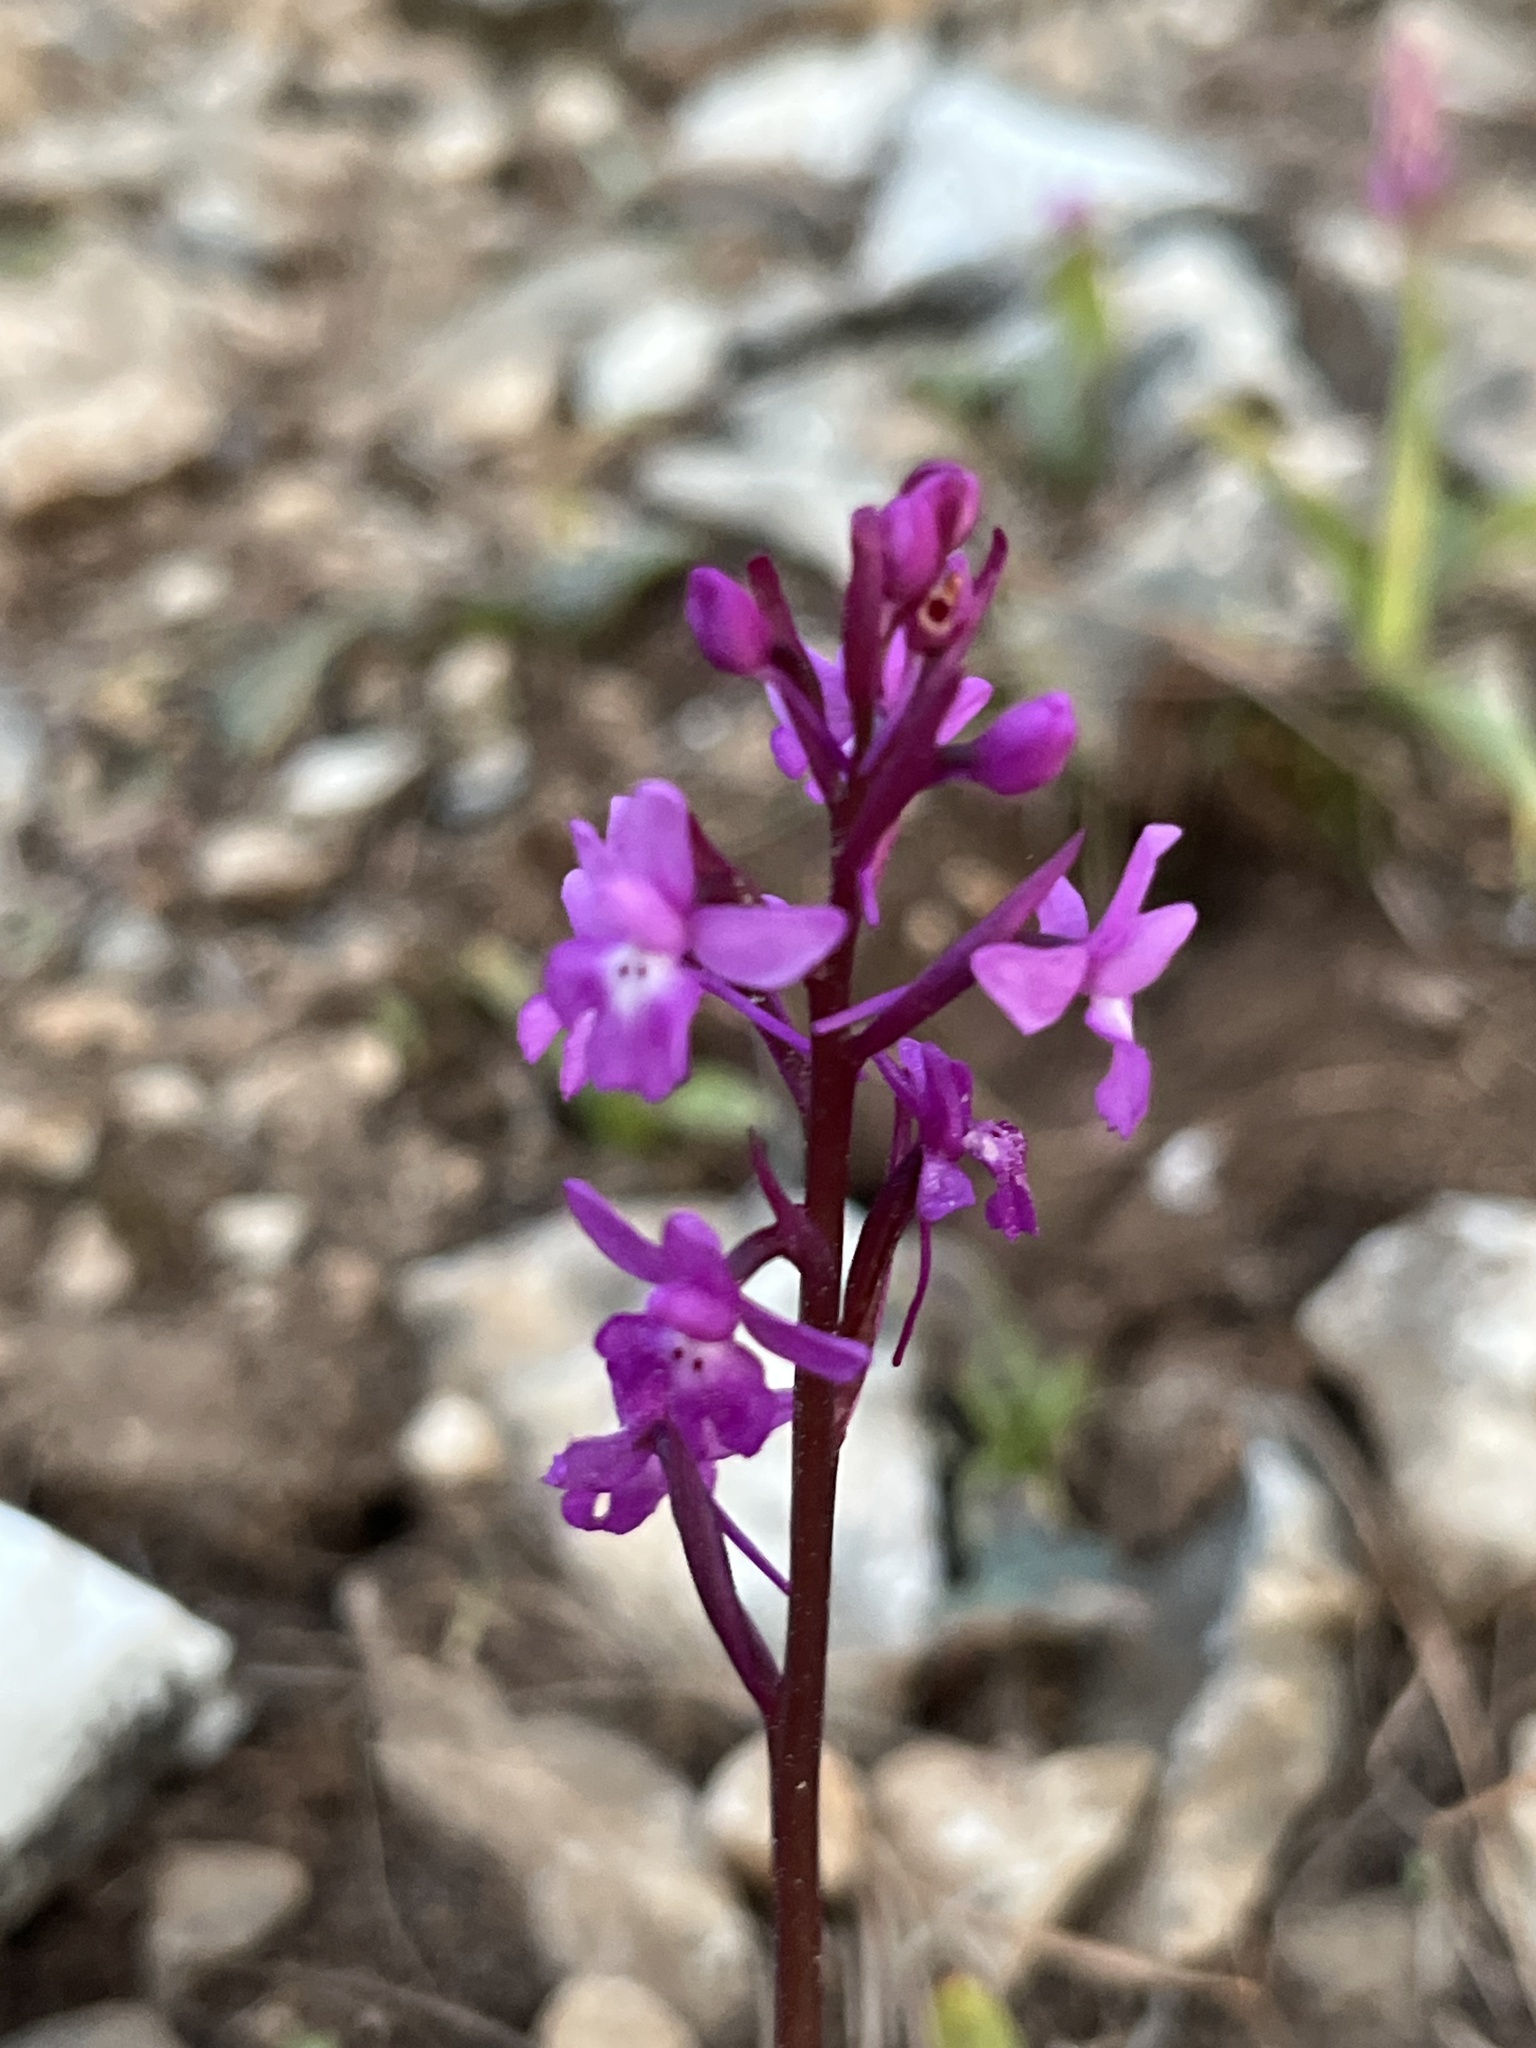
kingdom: Plantae
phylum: Tracheophyta
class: Liliopsida
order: Asparagales
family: Orchidaceae
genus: Orchis
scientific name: Orchis quadripunctata
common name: Four-spotted orchid
